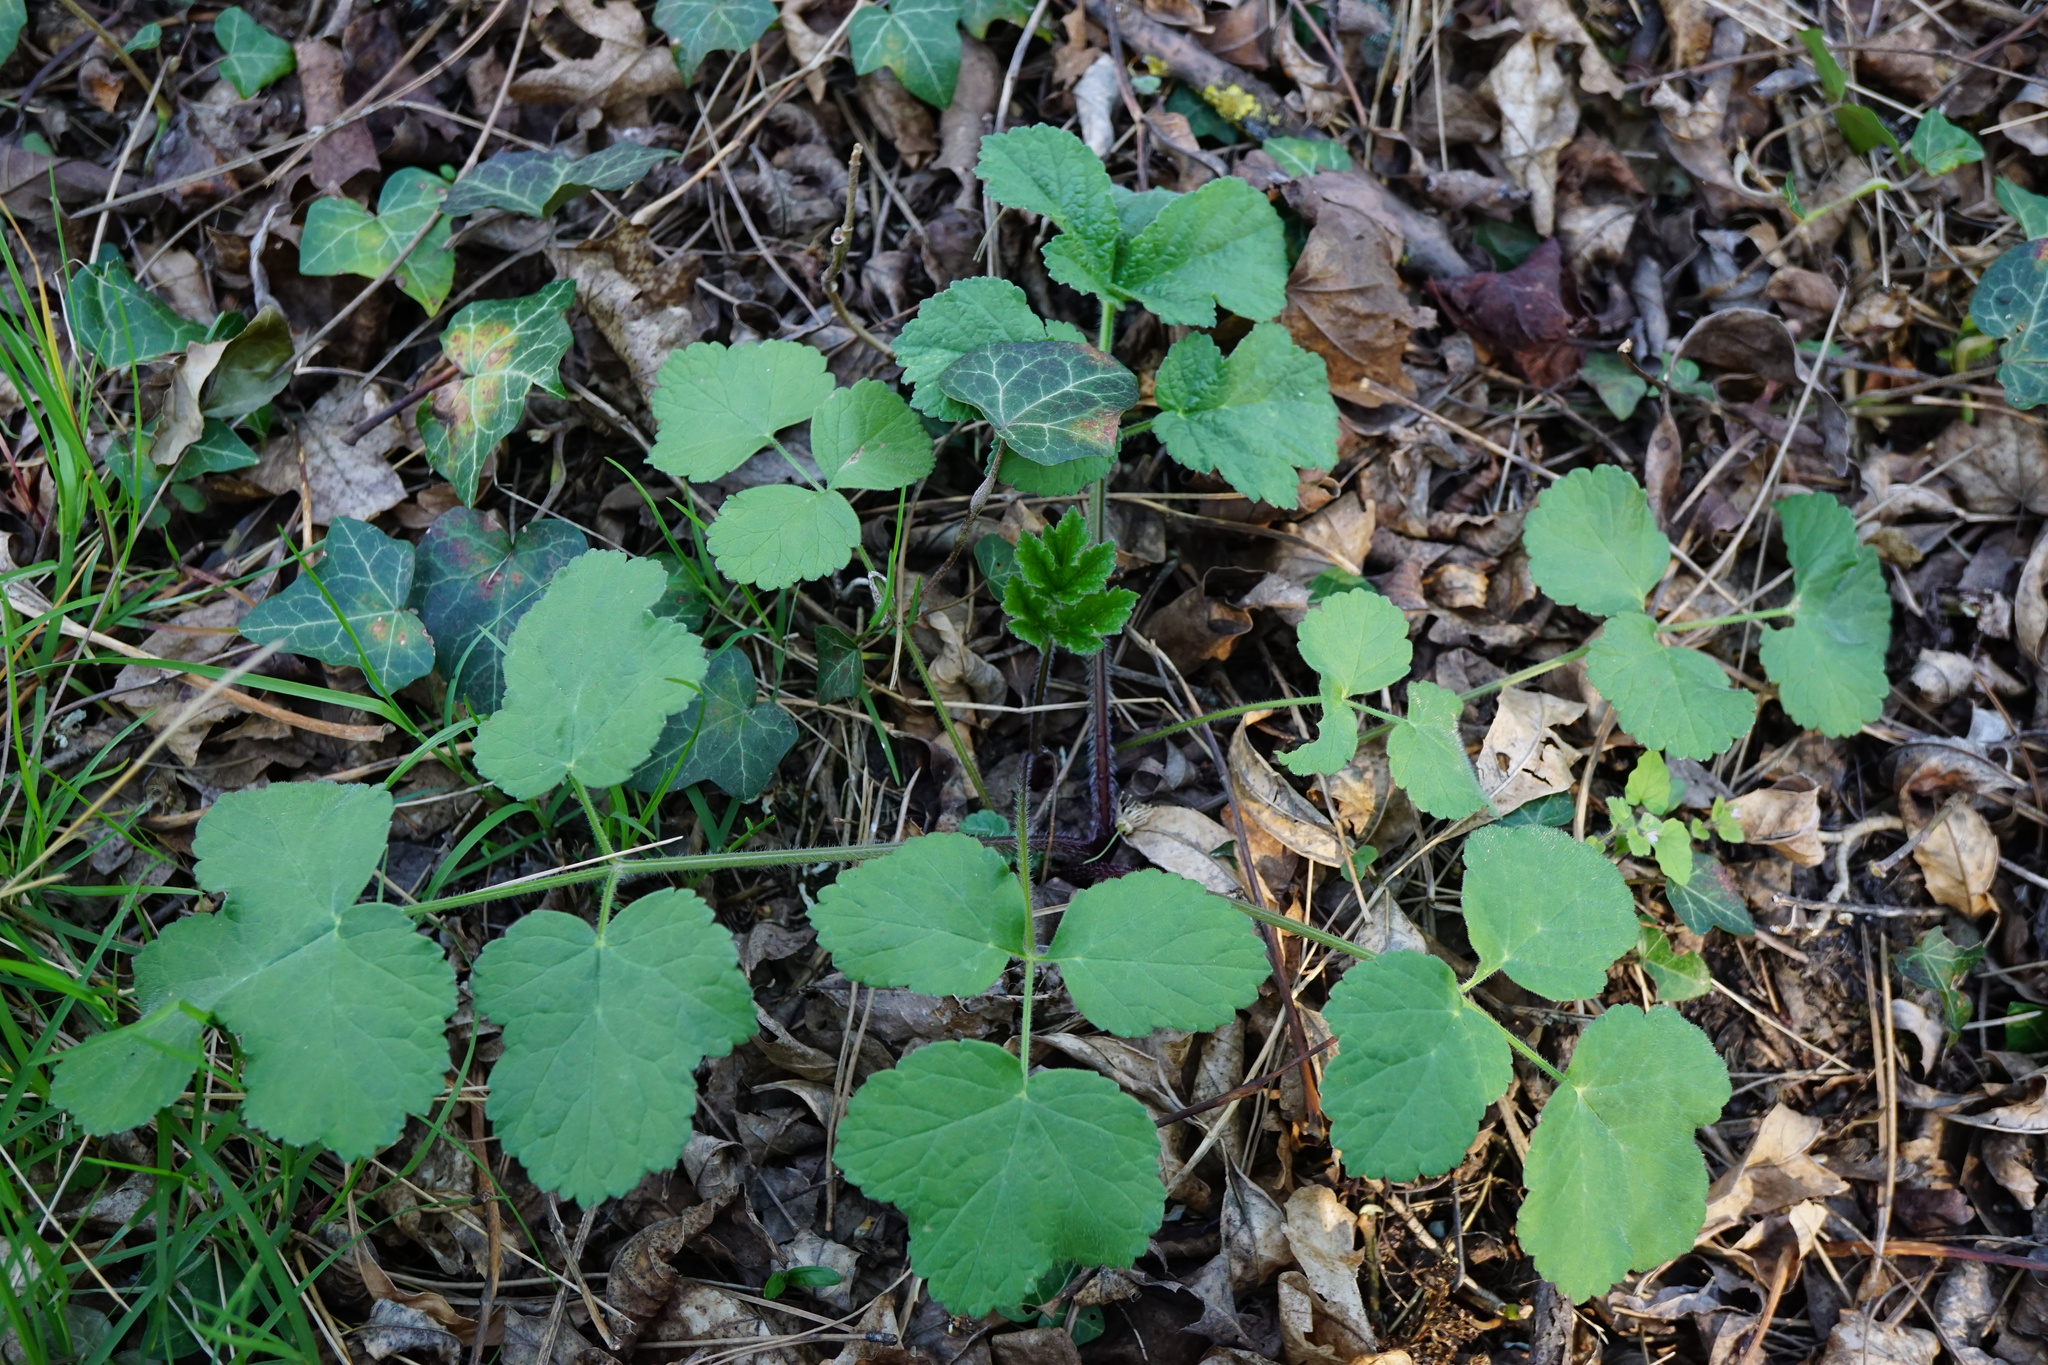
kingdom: Plantae
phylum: Tracheophyta
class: Magnoliopsida
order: Apiales
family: Apiaceae
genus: Heracleum
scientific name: Heracleum sphondylium
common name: Hogweed
